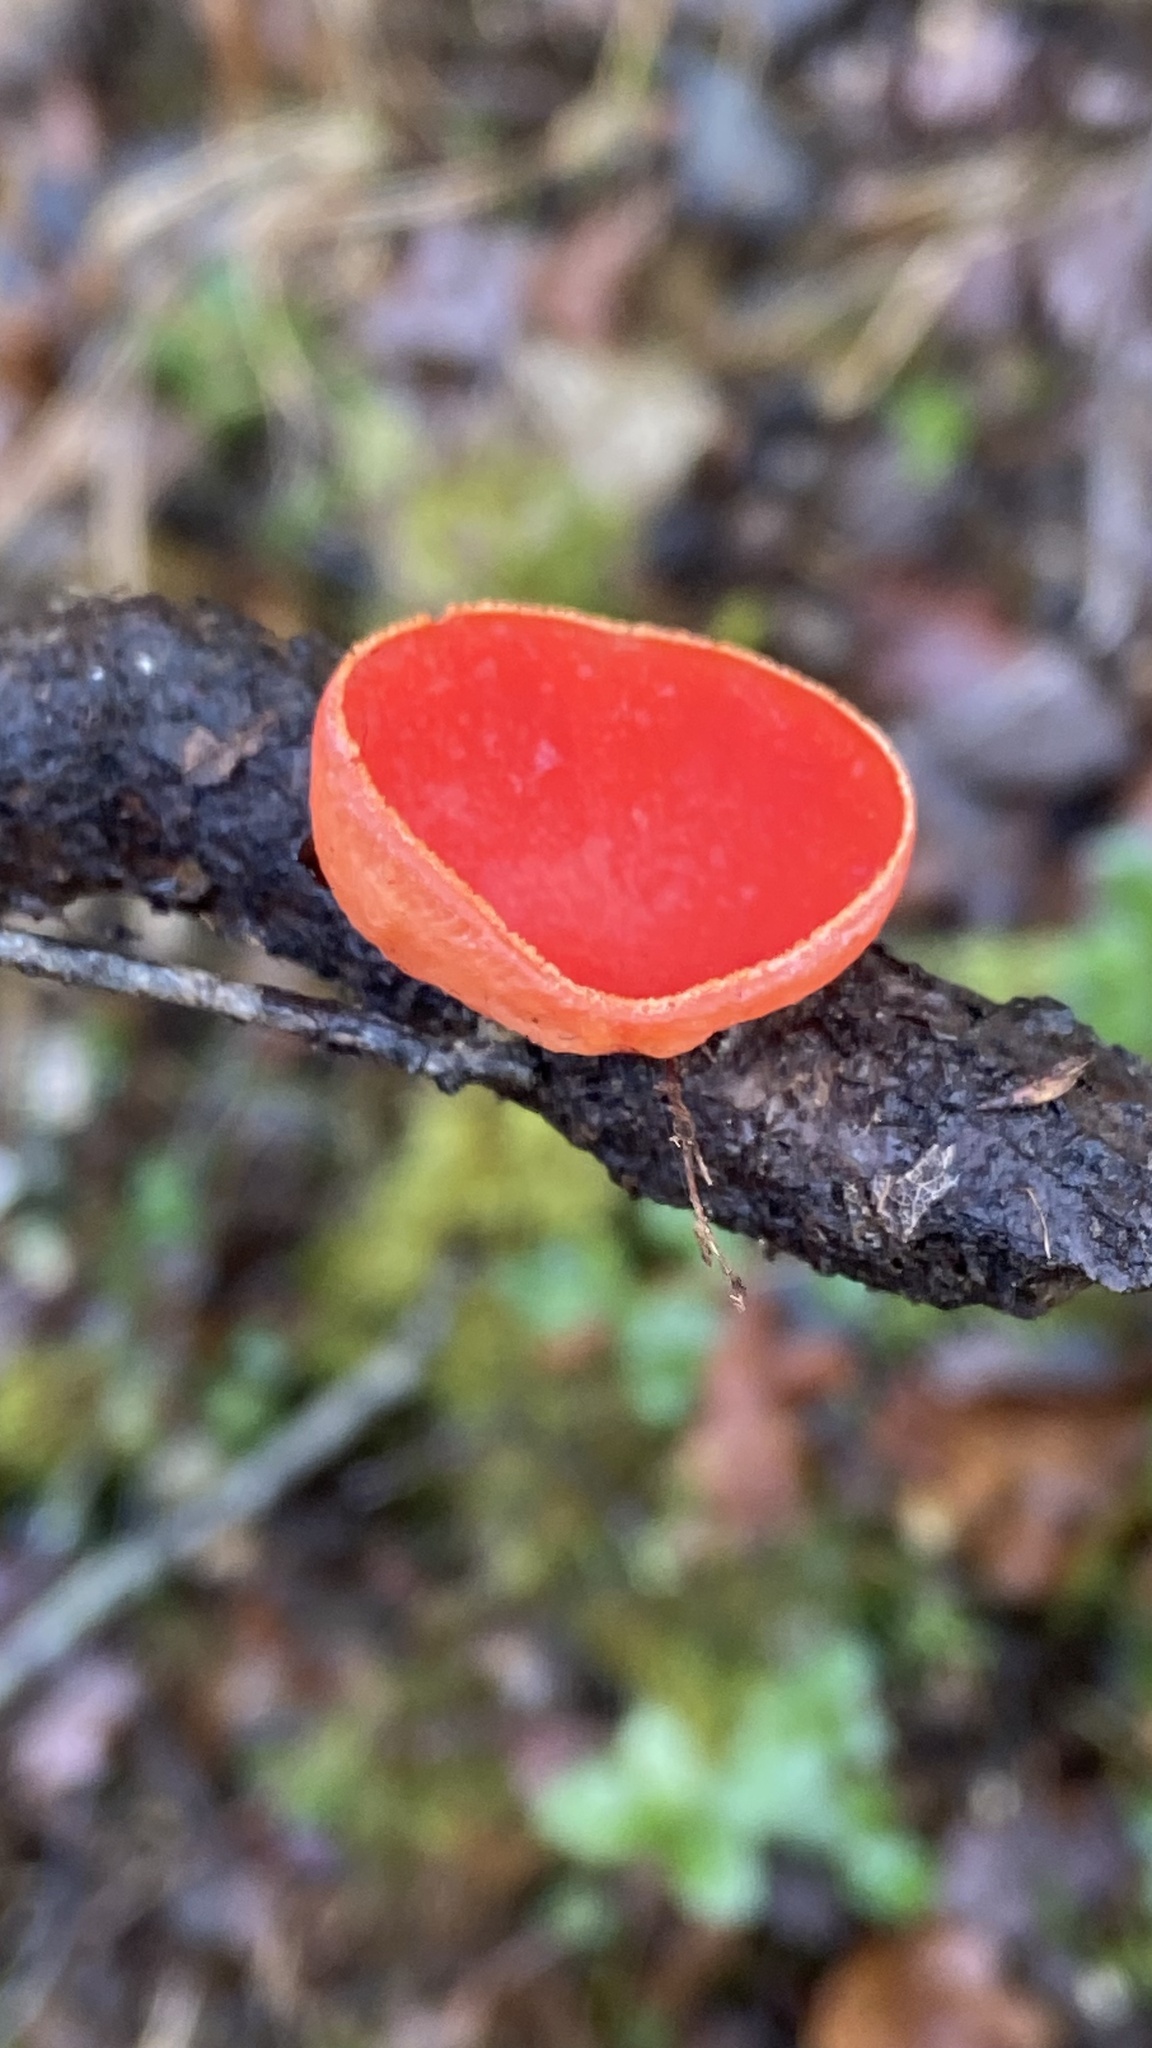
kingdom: Fungi
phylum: Ascomycota
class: Pezizomycetes
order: Pezizales
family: Sarcoscyphaceae
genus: Sarcoscypha
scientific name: Sarcoscypha coccinea
